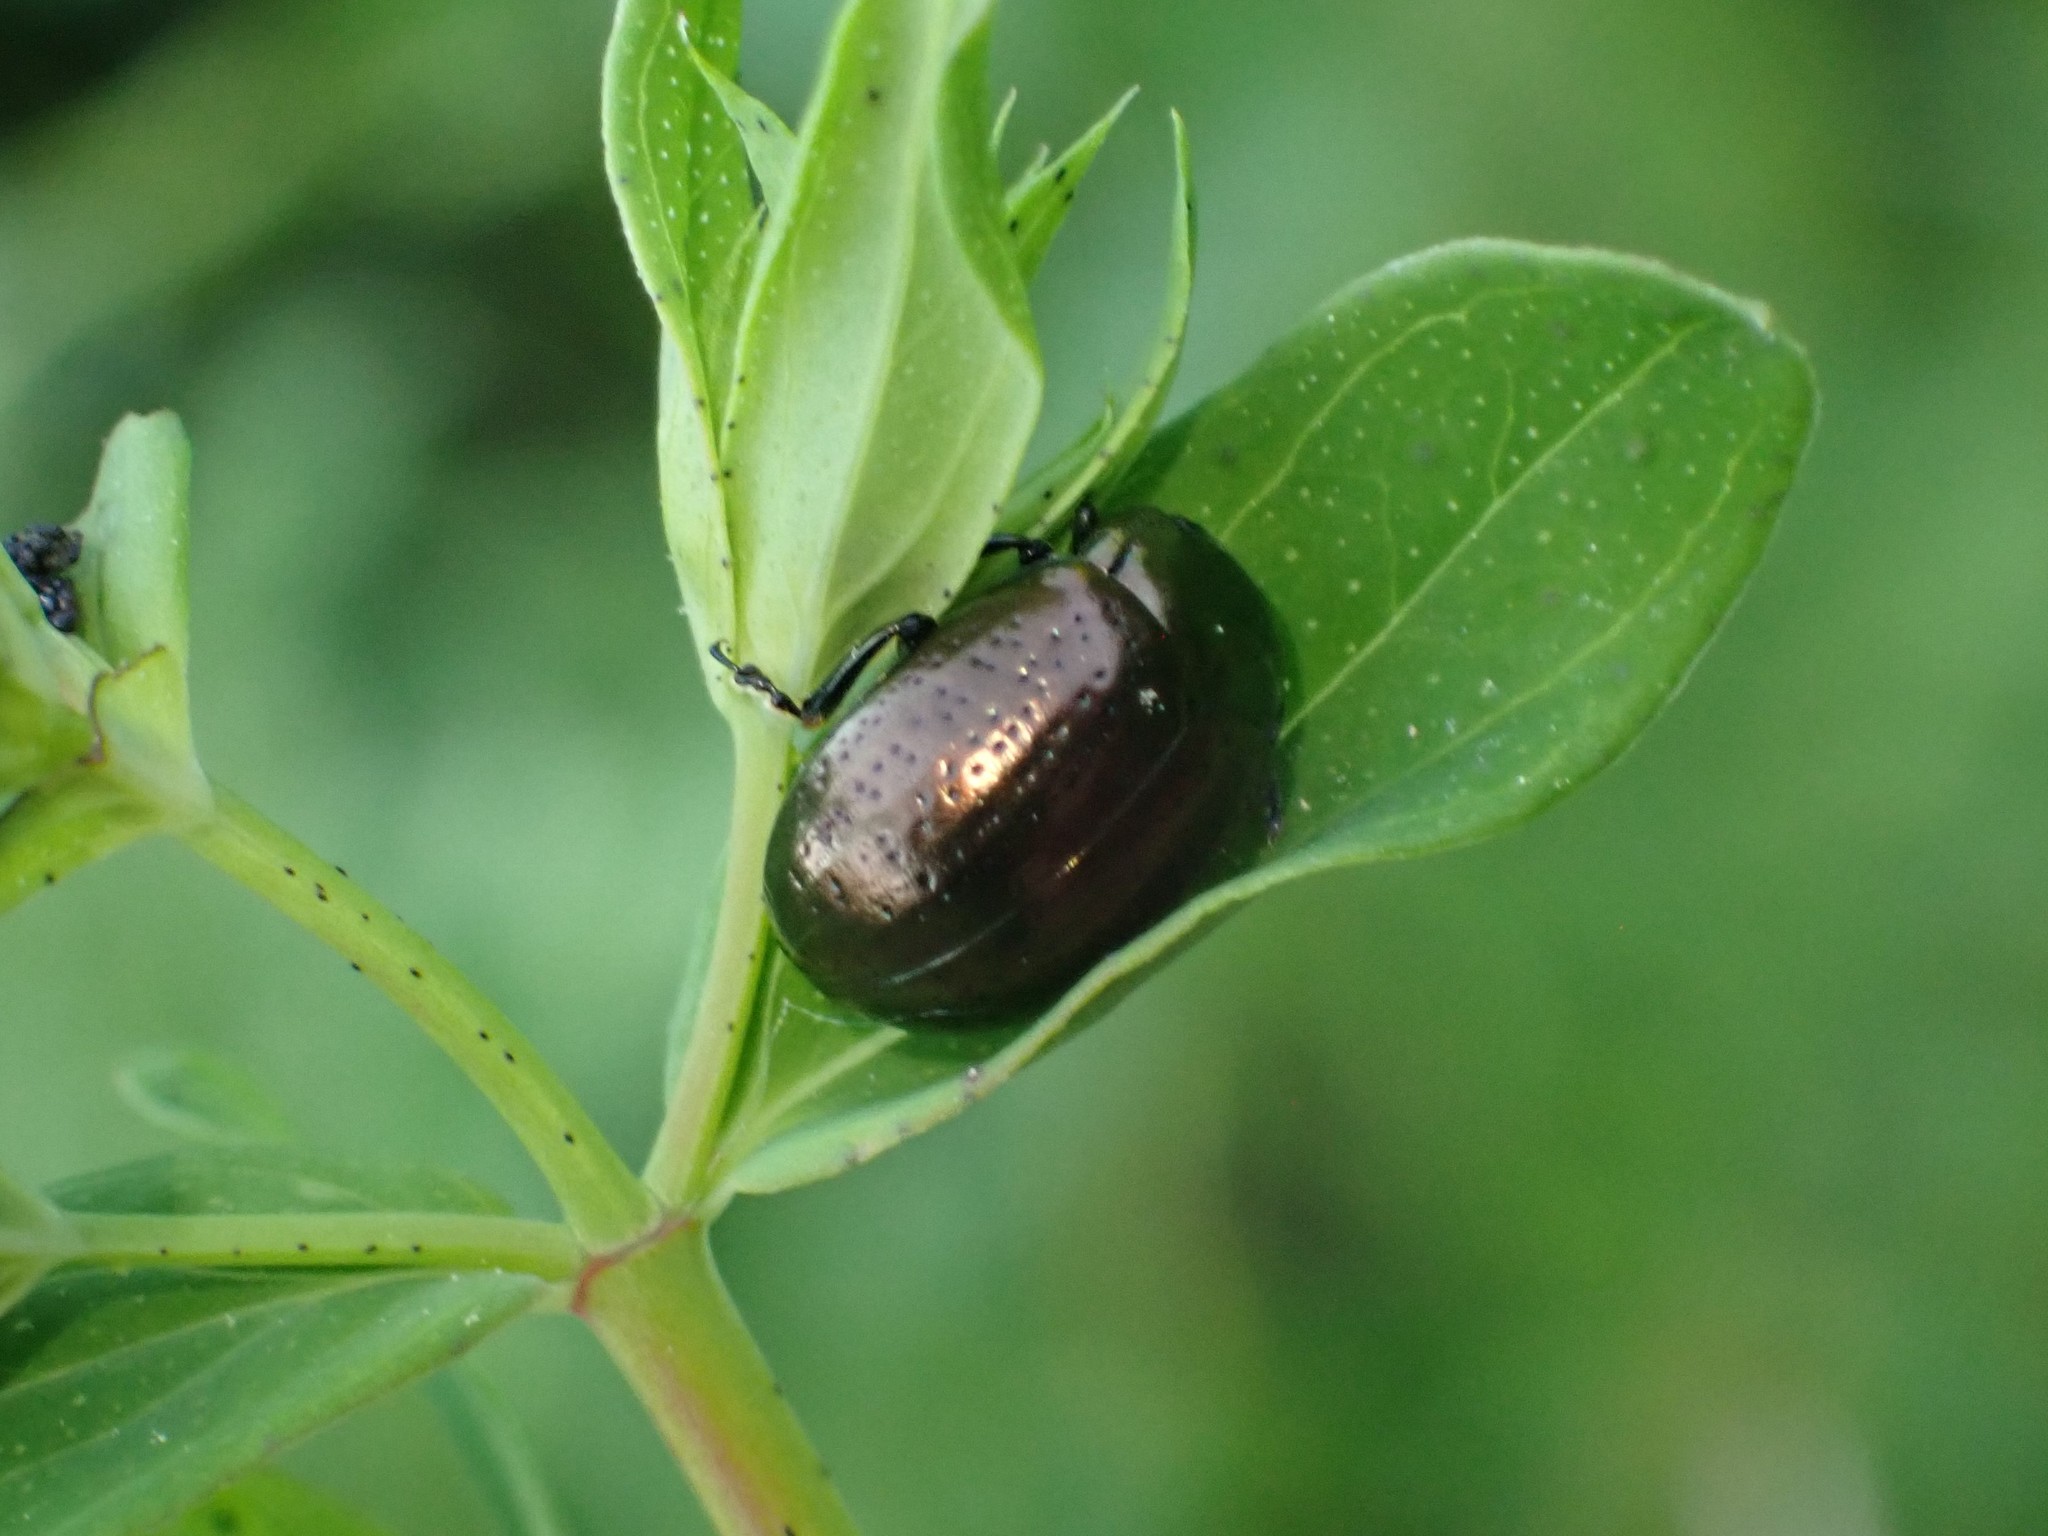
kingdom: Animalia
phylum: Arthropoda
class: Insecta
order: Coleoptera
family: Chrysomelidae
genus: Chrysolina
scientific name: Chrysolina hyperici
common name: St. johnswort beetle
